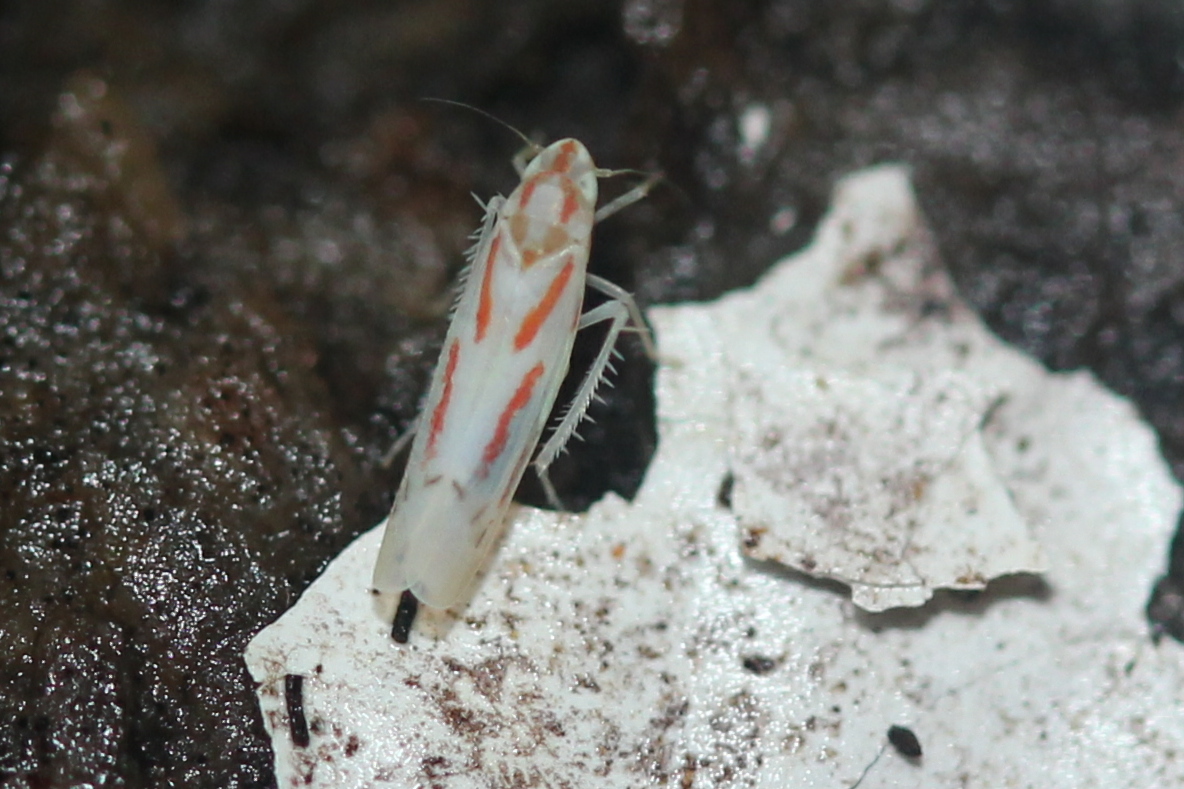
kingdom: Animalia
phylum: Arthropoda
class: Insecta
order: Hemiptera
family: Cicadellidae
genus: Dikrella
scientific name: Dikrella cruentata
